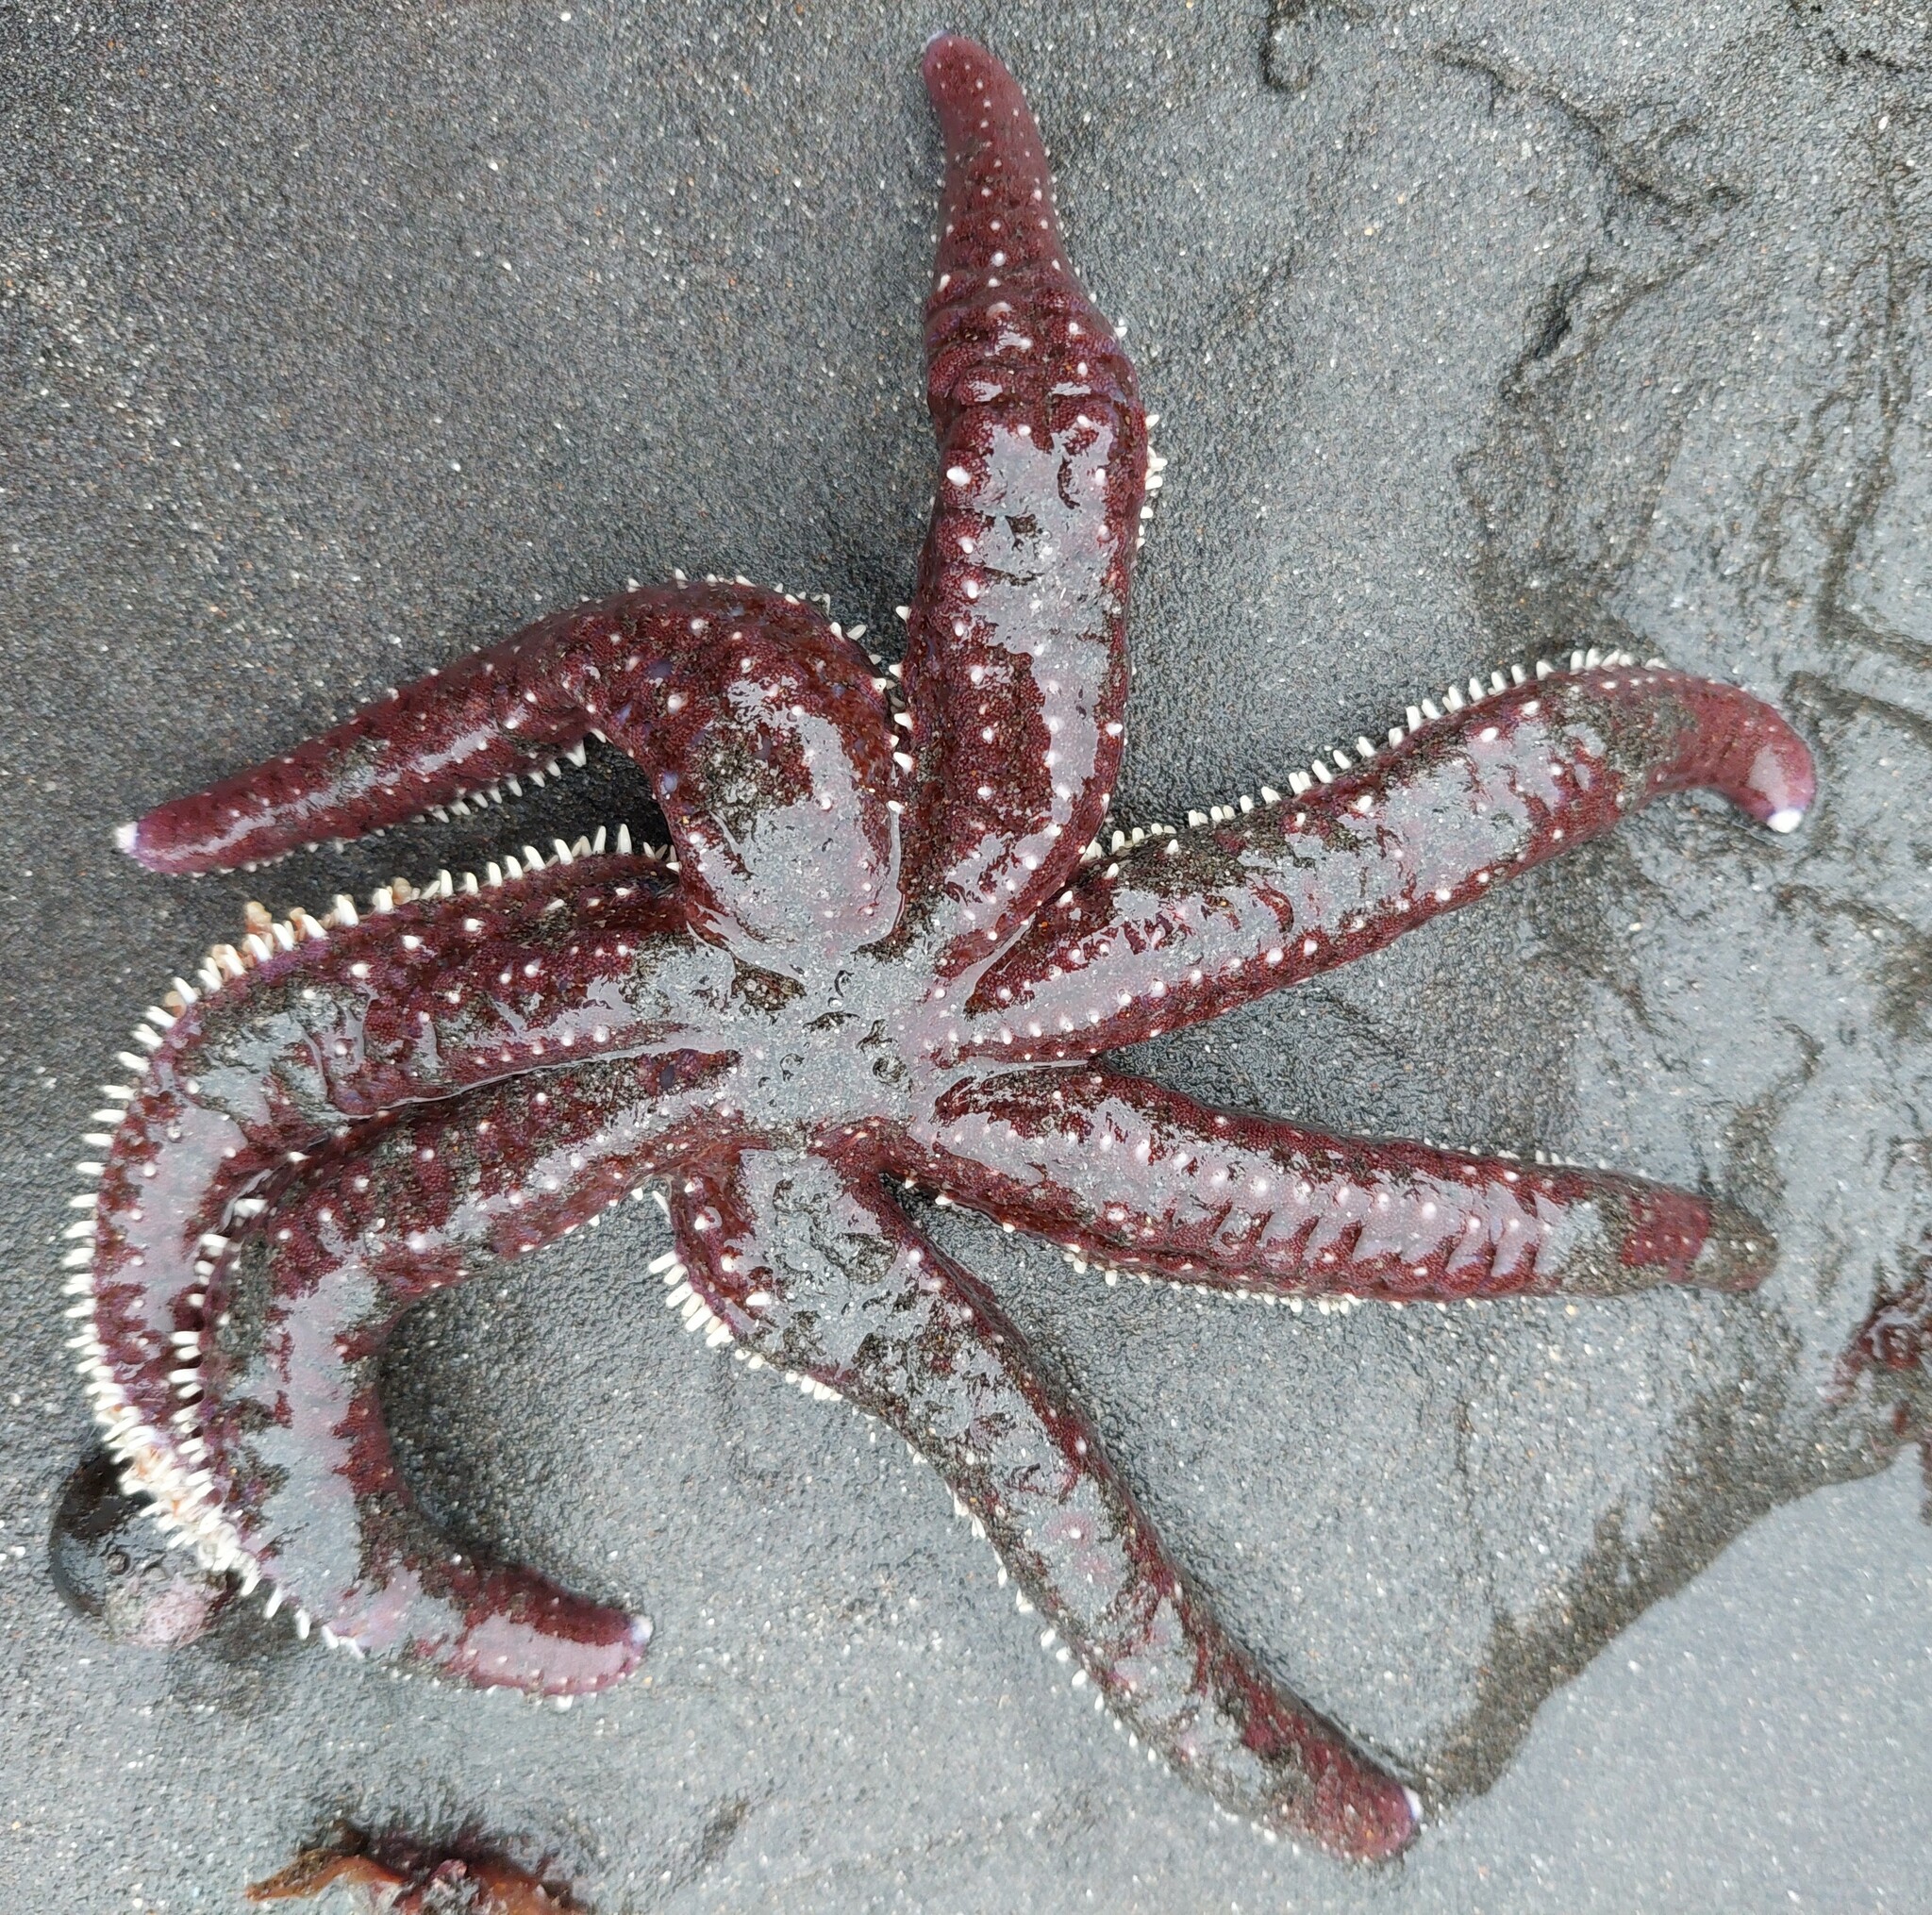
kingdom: Animalia
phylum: Echinodermata
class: Asteroidea
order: Forcipulatida
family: Asteriidae
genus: Astrostole
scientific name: Astrostole scabra
